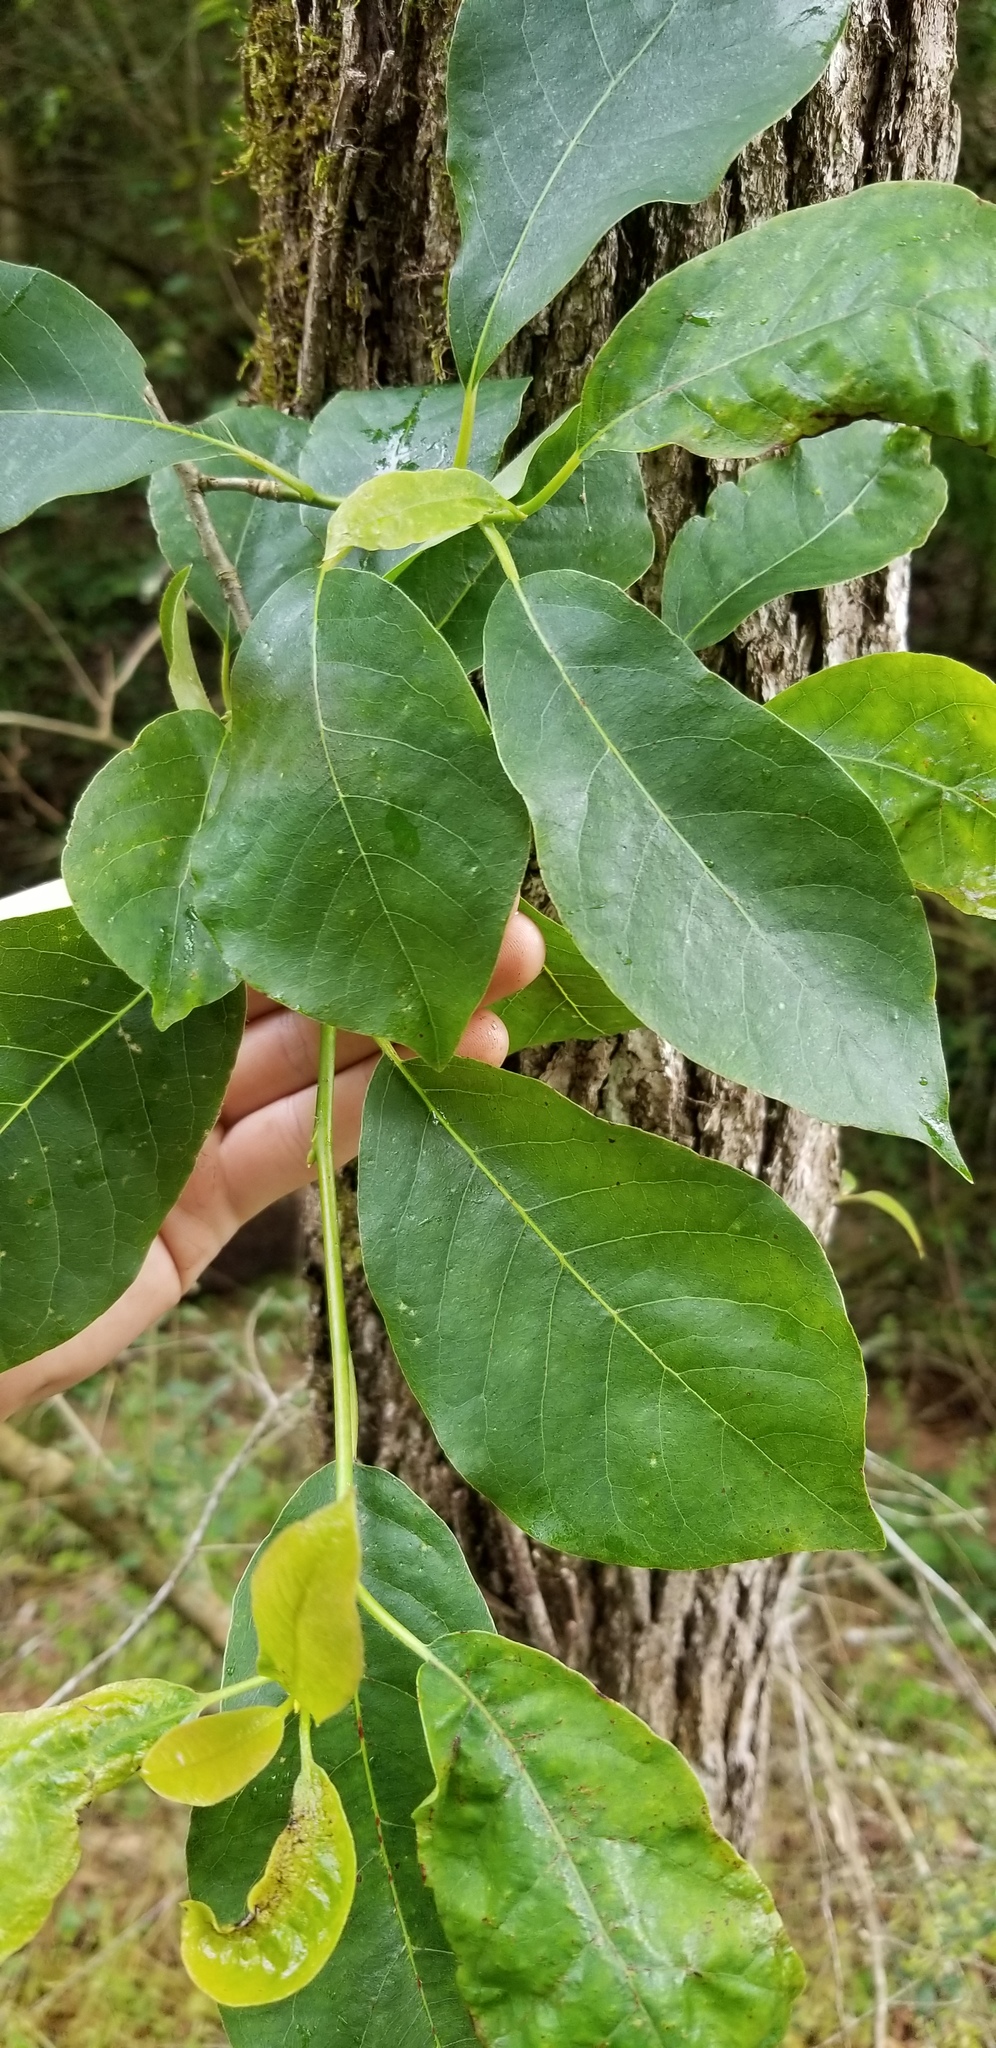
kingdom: Plantae
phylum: Tracheophyta
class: Magnoliopsida
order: Cornales
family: Nyssaceae
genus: Nyssa
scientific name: Nyssa sylvatica
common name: Black tupelo
